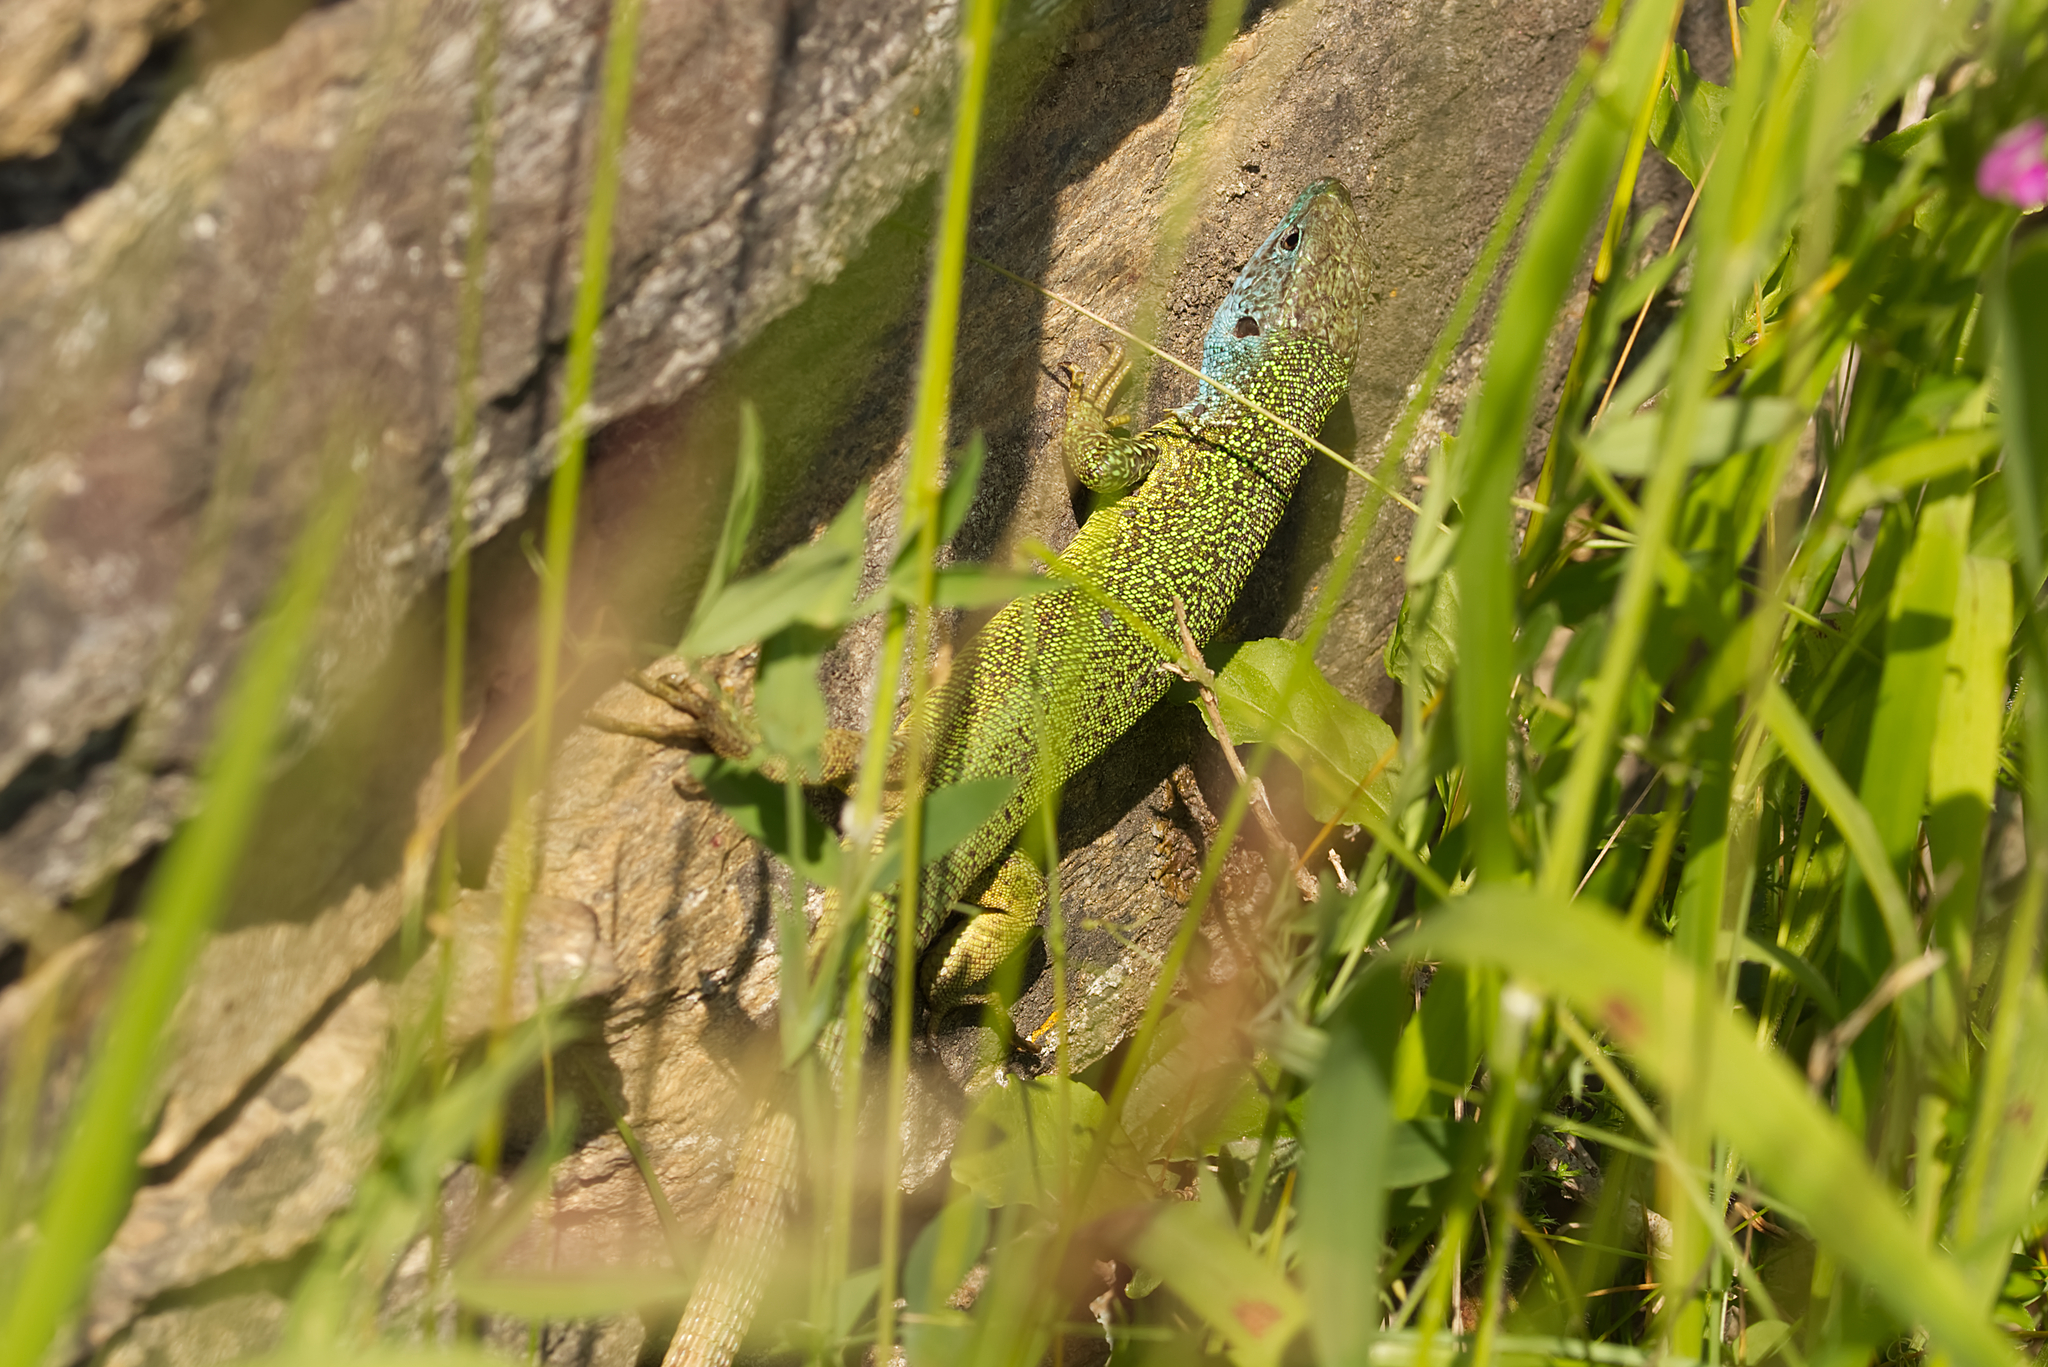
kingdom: Animalia
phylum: Chordata
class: Squamata
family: Lacertidae
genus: Lacerta
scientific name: Lacerta viridis
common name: European green lizard
